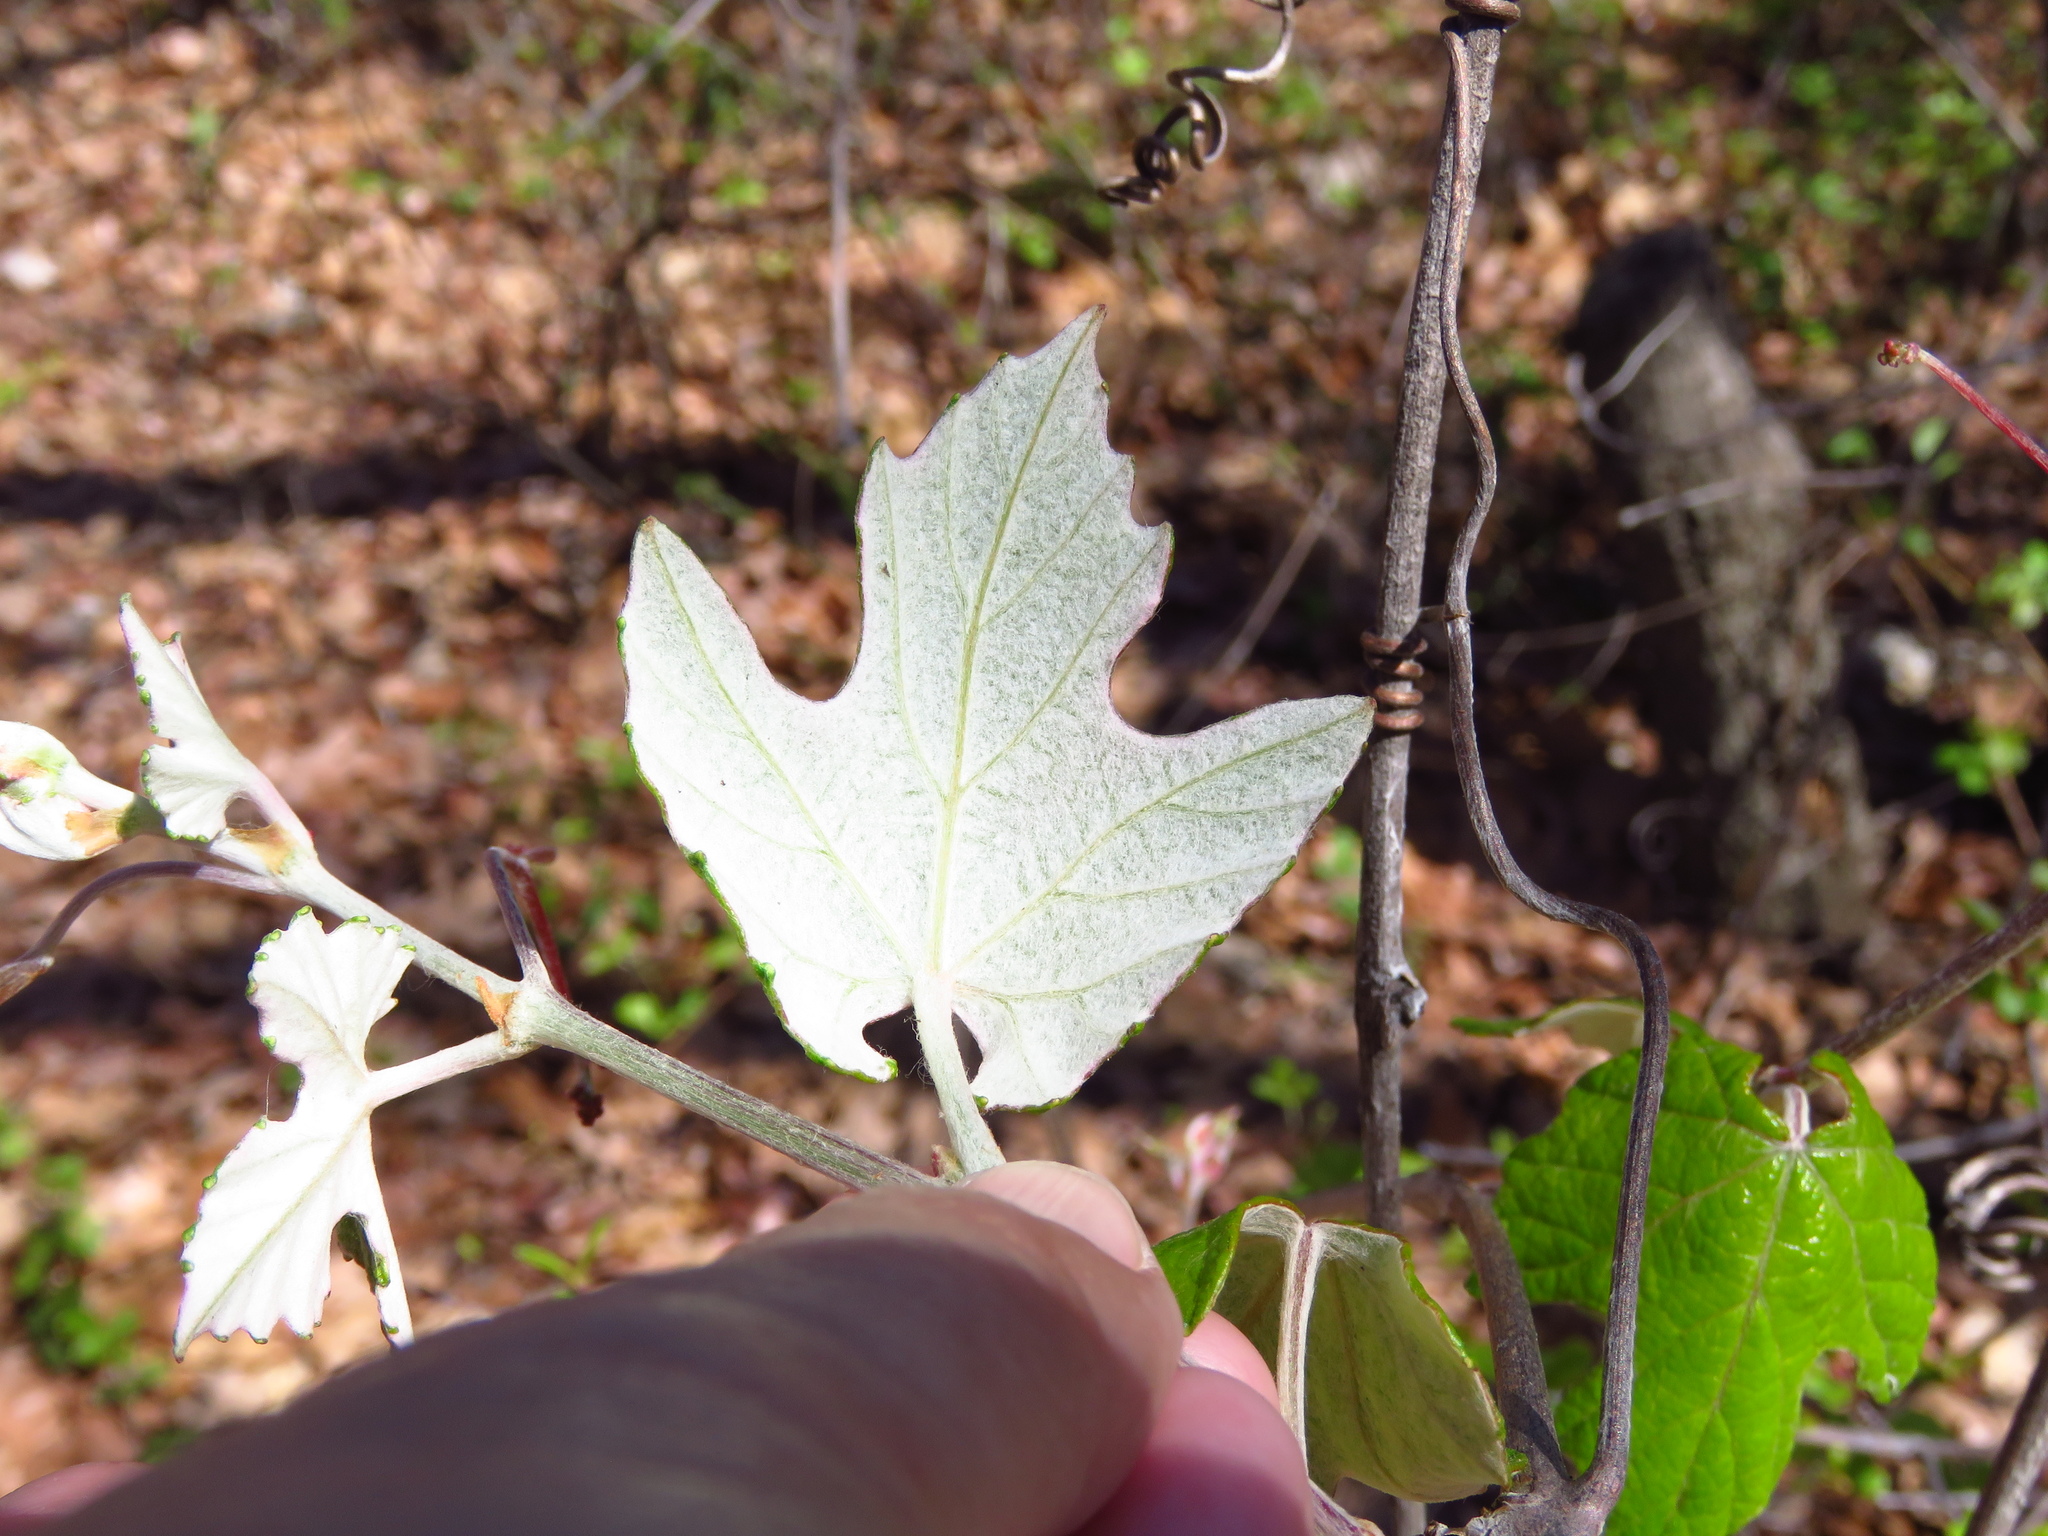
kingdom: Plantae
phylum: Tracheophyta
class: Magnoliopsida
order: Vitales
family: Vitaceae
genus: Vitis
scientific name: Vitis mustangensis
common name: Mustang grape
